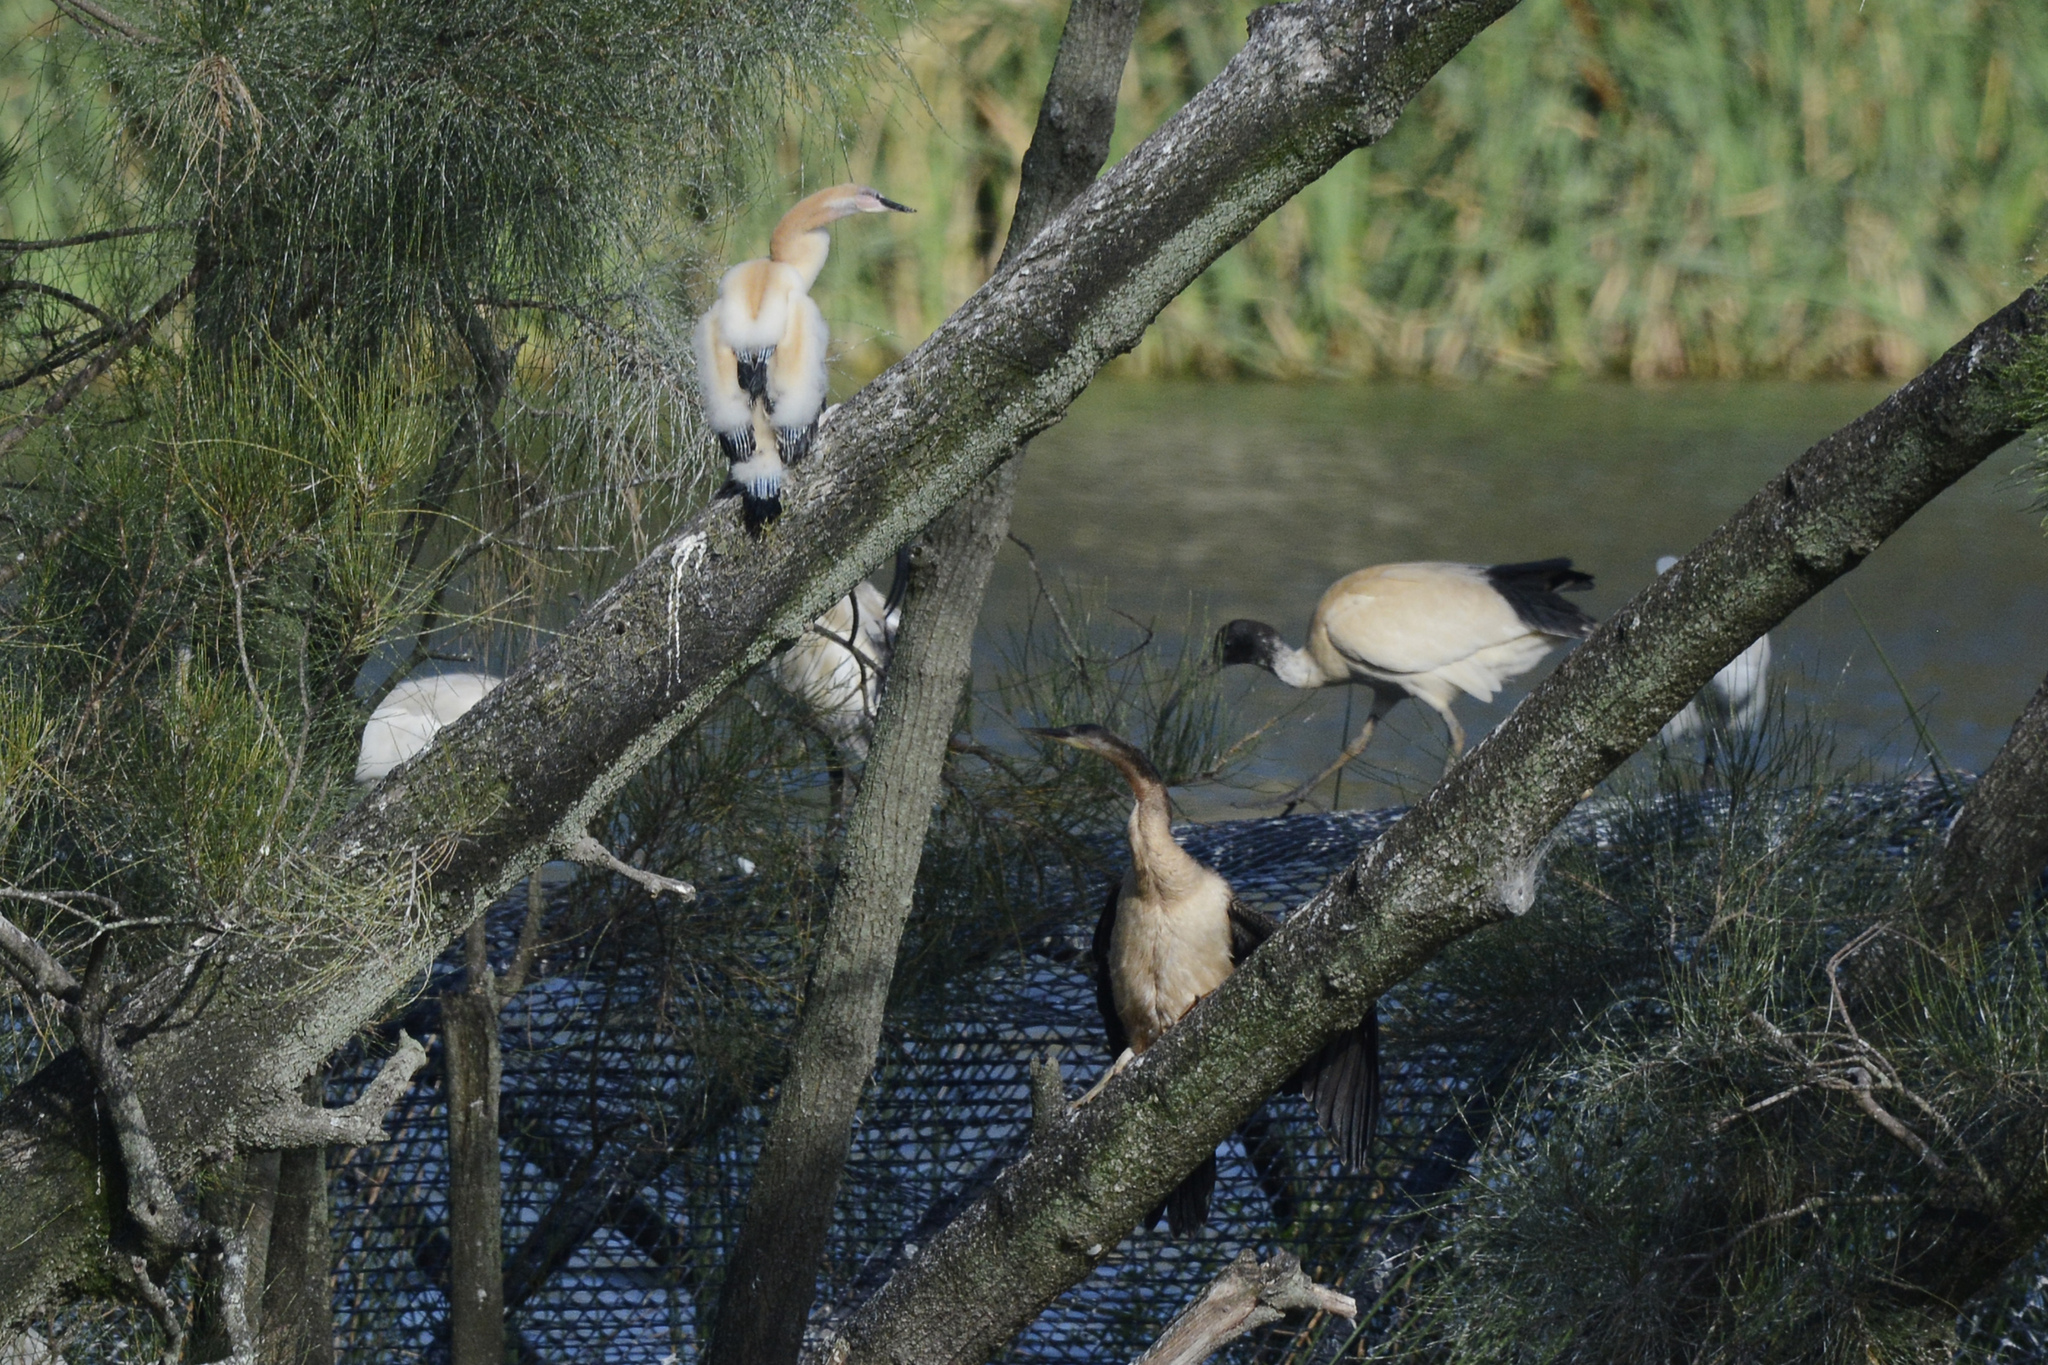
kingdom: Animalia
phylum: Chordata
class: Aves
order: Suliformes
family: Anhingidae
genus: Anhinga
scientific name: Anhinga novaehollandiae
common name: Australasian darter
